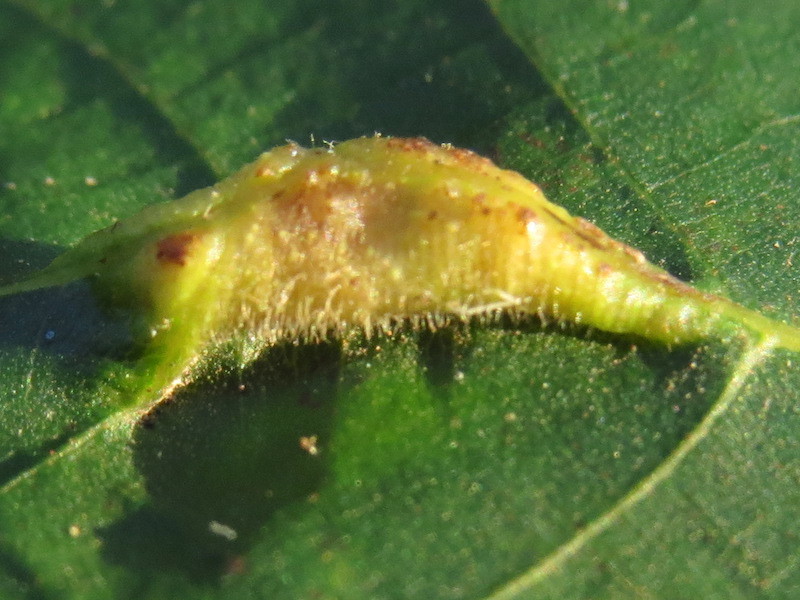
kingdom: Animalia
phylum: Arthropoda
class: Insecta
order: Hemiptera
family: Phylloxeridae
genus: Phylloxera
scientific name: Phylloxera caryaevenae
